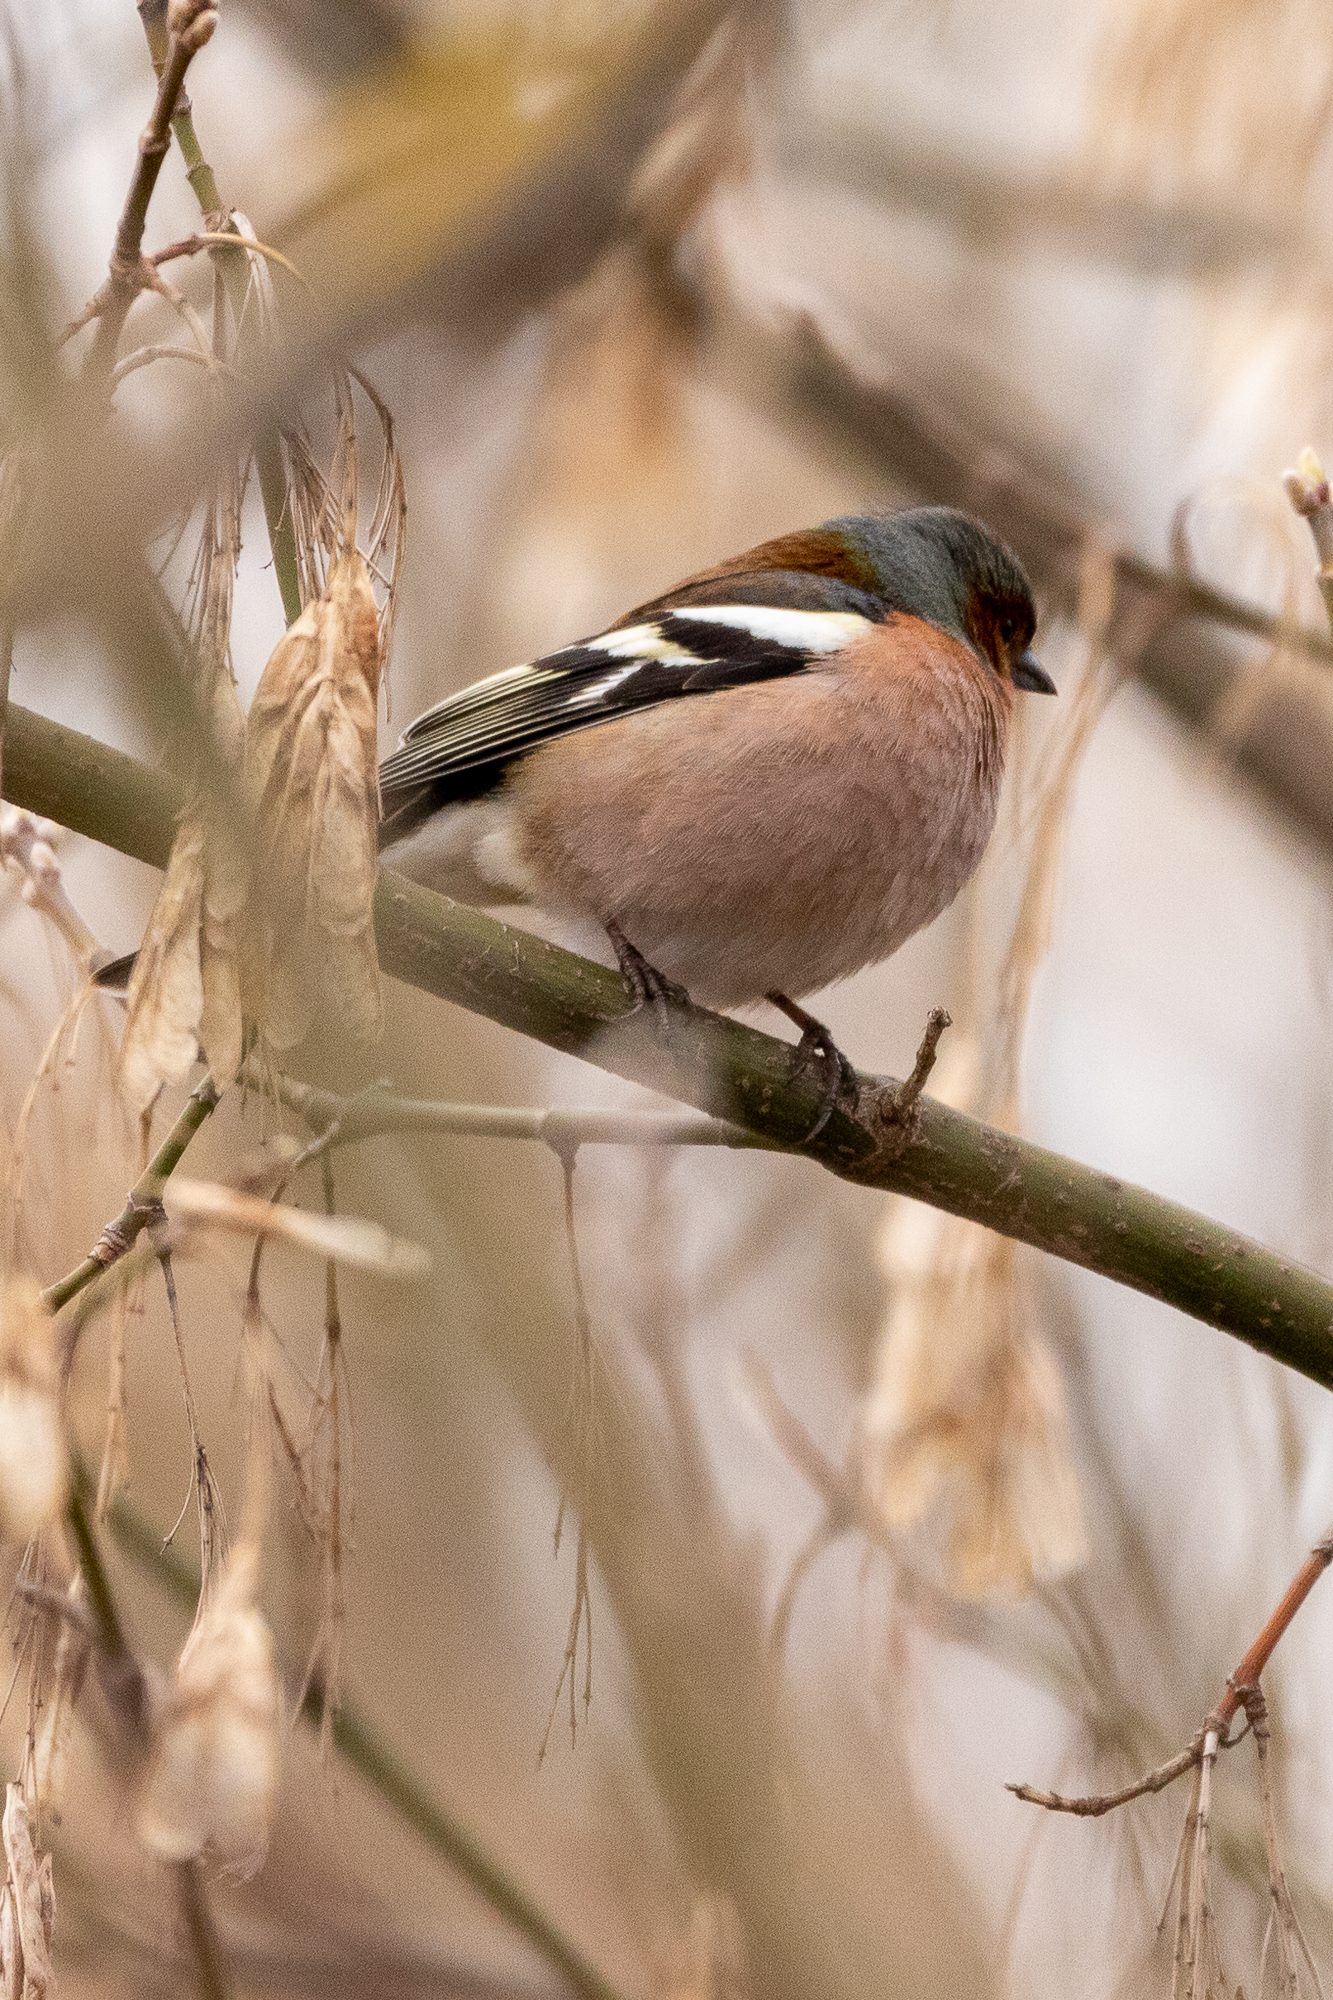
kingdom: Animalia
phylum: Chordata
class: Aves
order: Passeriformes
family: Fringillidae
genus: Fringilla
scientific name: Fringilla coelebs
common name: Common chaffinch
